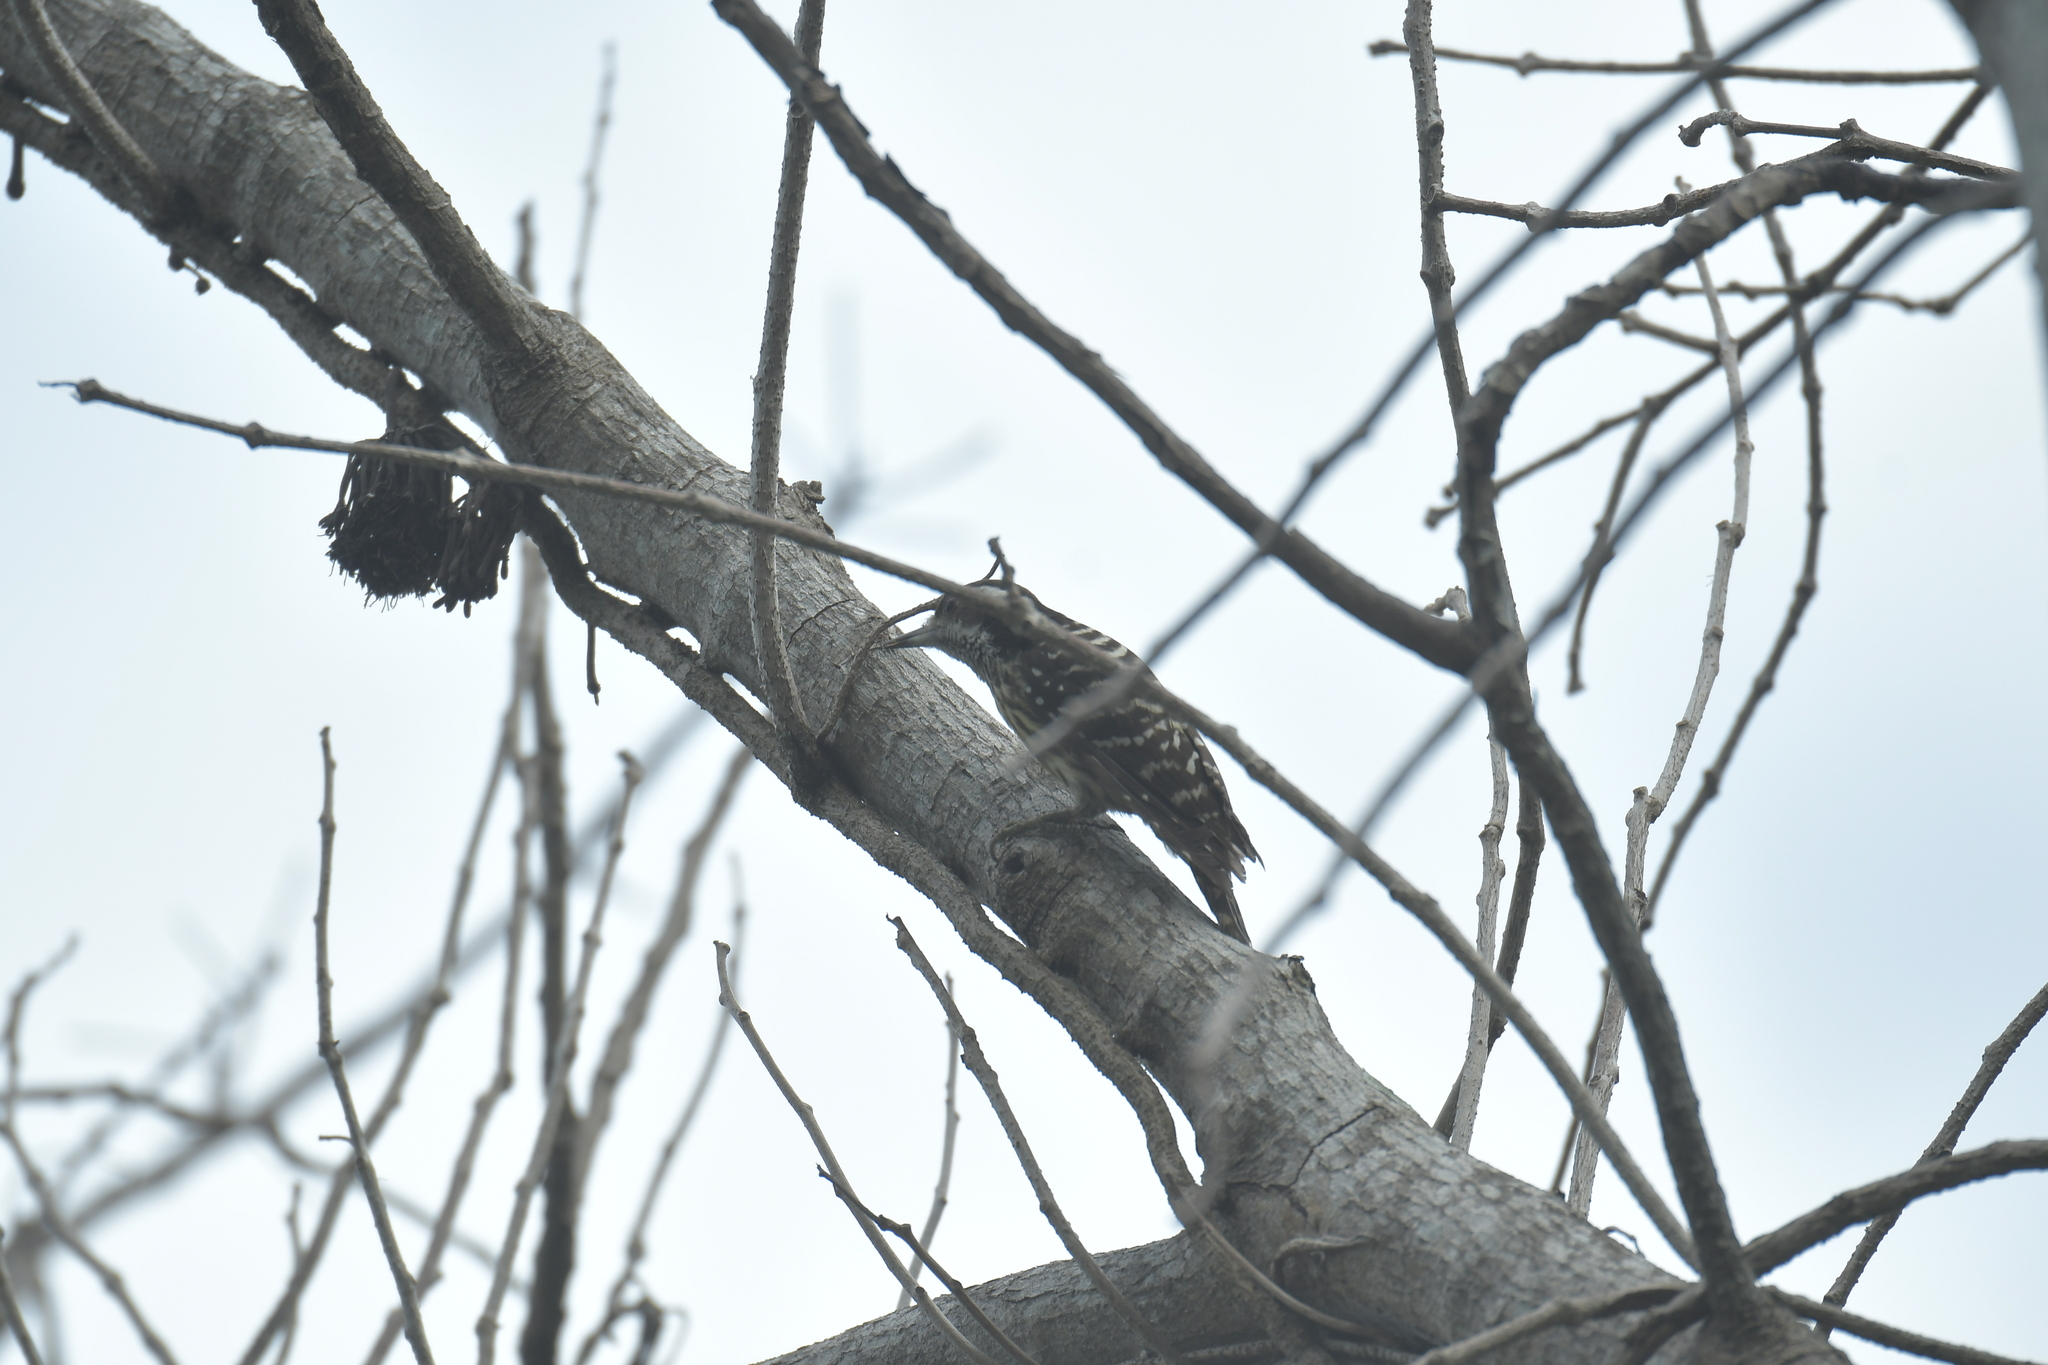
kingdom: Animalia
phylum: Chordata
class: Aves
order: Piciformes
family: Picidae
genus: Yungipicus
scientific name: Yungipicus maculatus
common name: Philippine pygmy woodpecker
